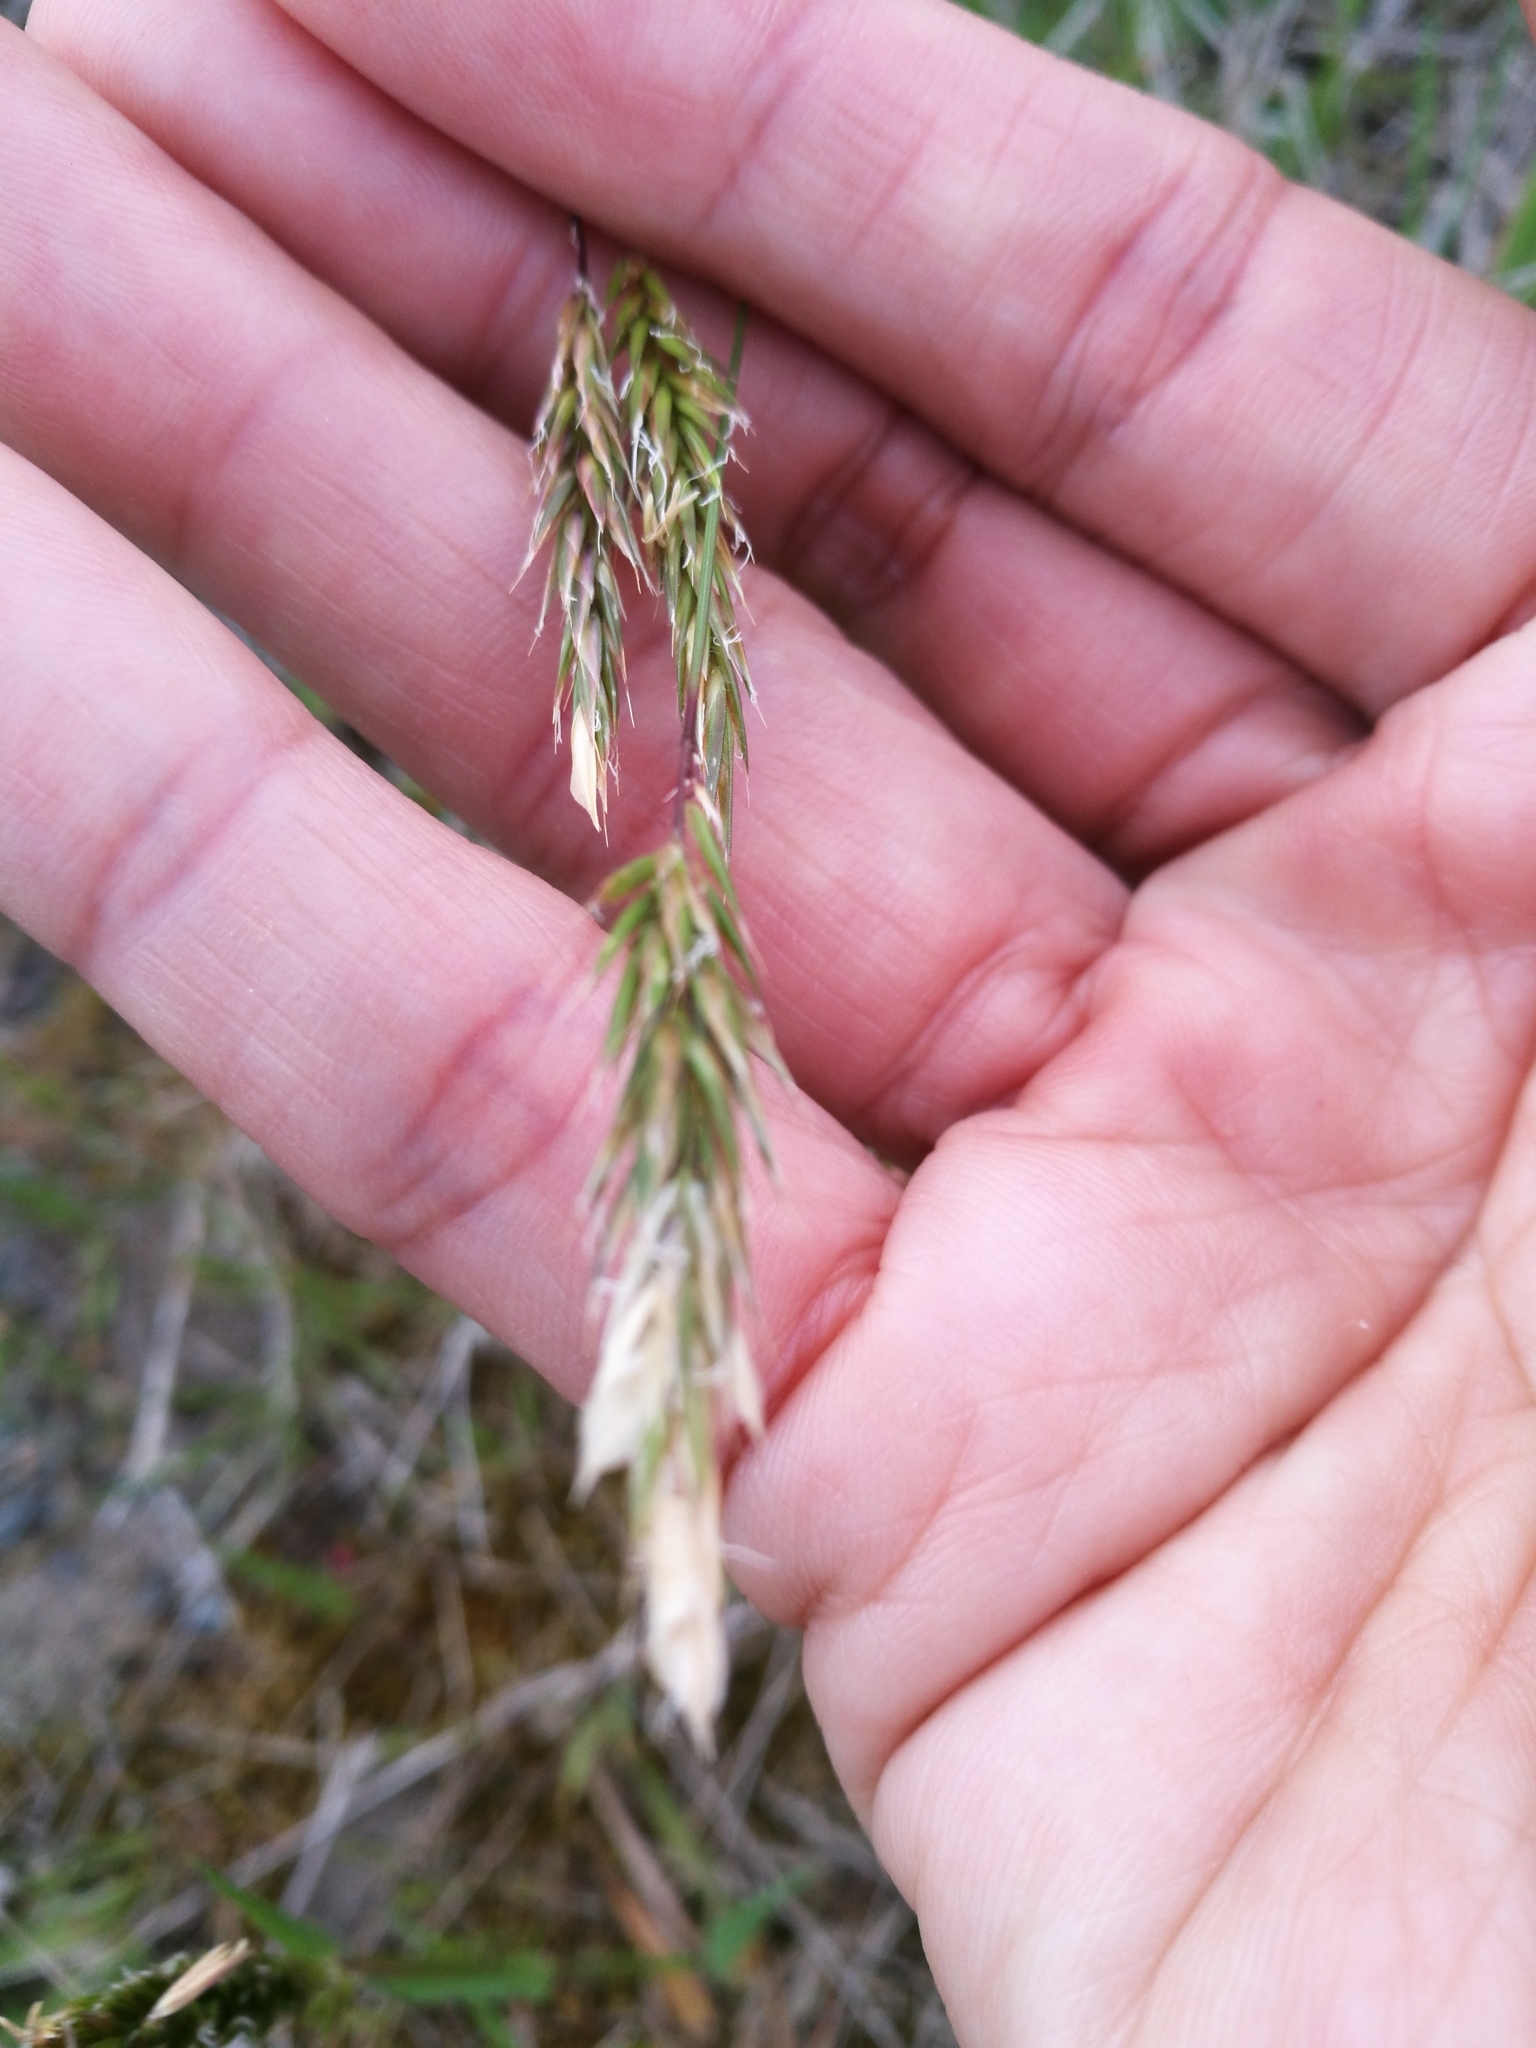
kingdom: Plantae
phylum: Tracheophyta
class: Liliopsida
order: Poales
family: Poaceae
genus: Anthoxanthum
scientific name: Anthoxanthum odoratum
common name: Sweet vernalgrass
